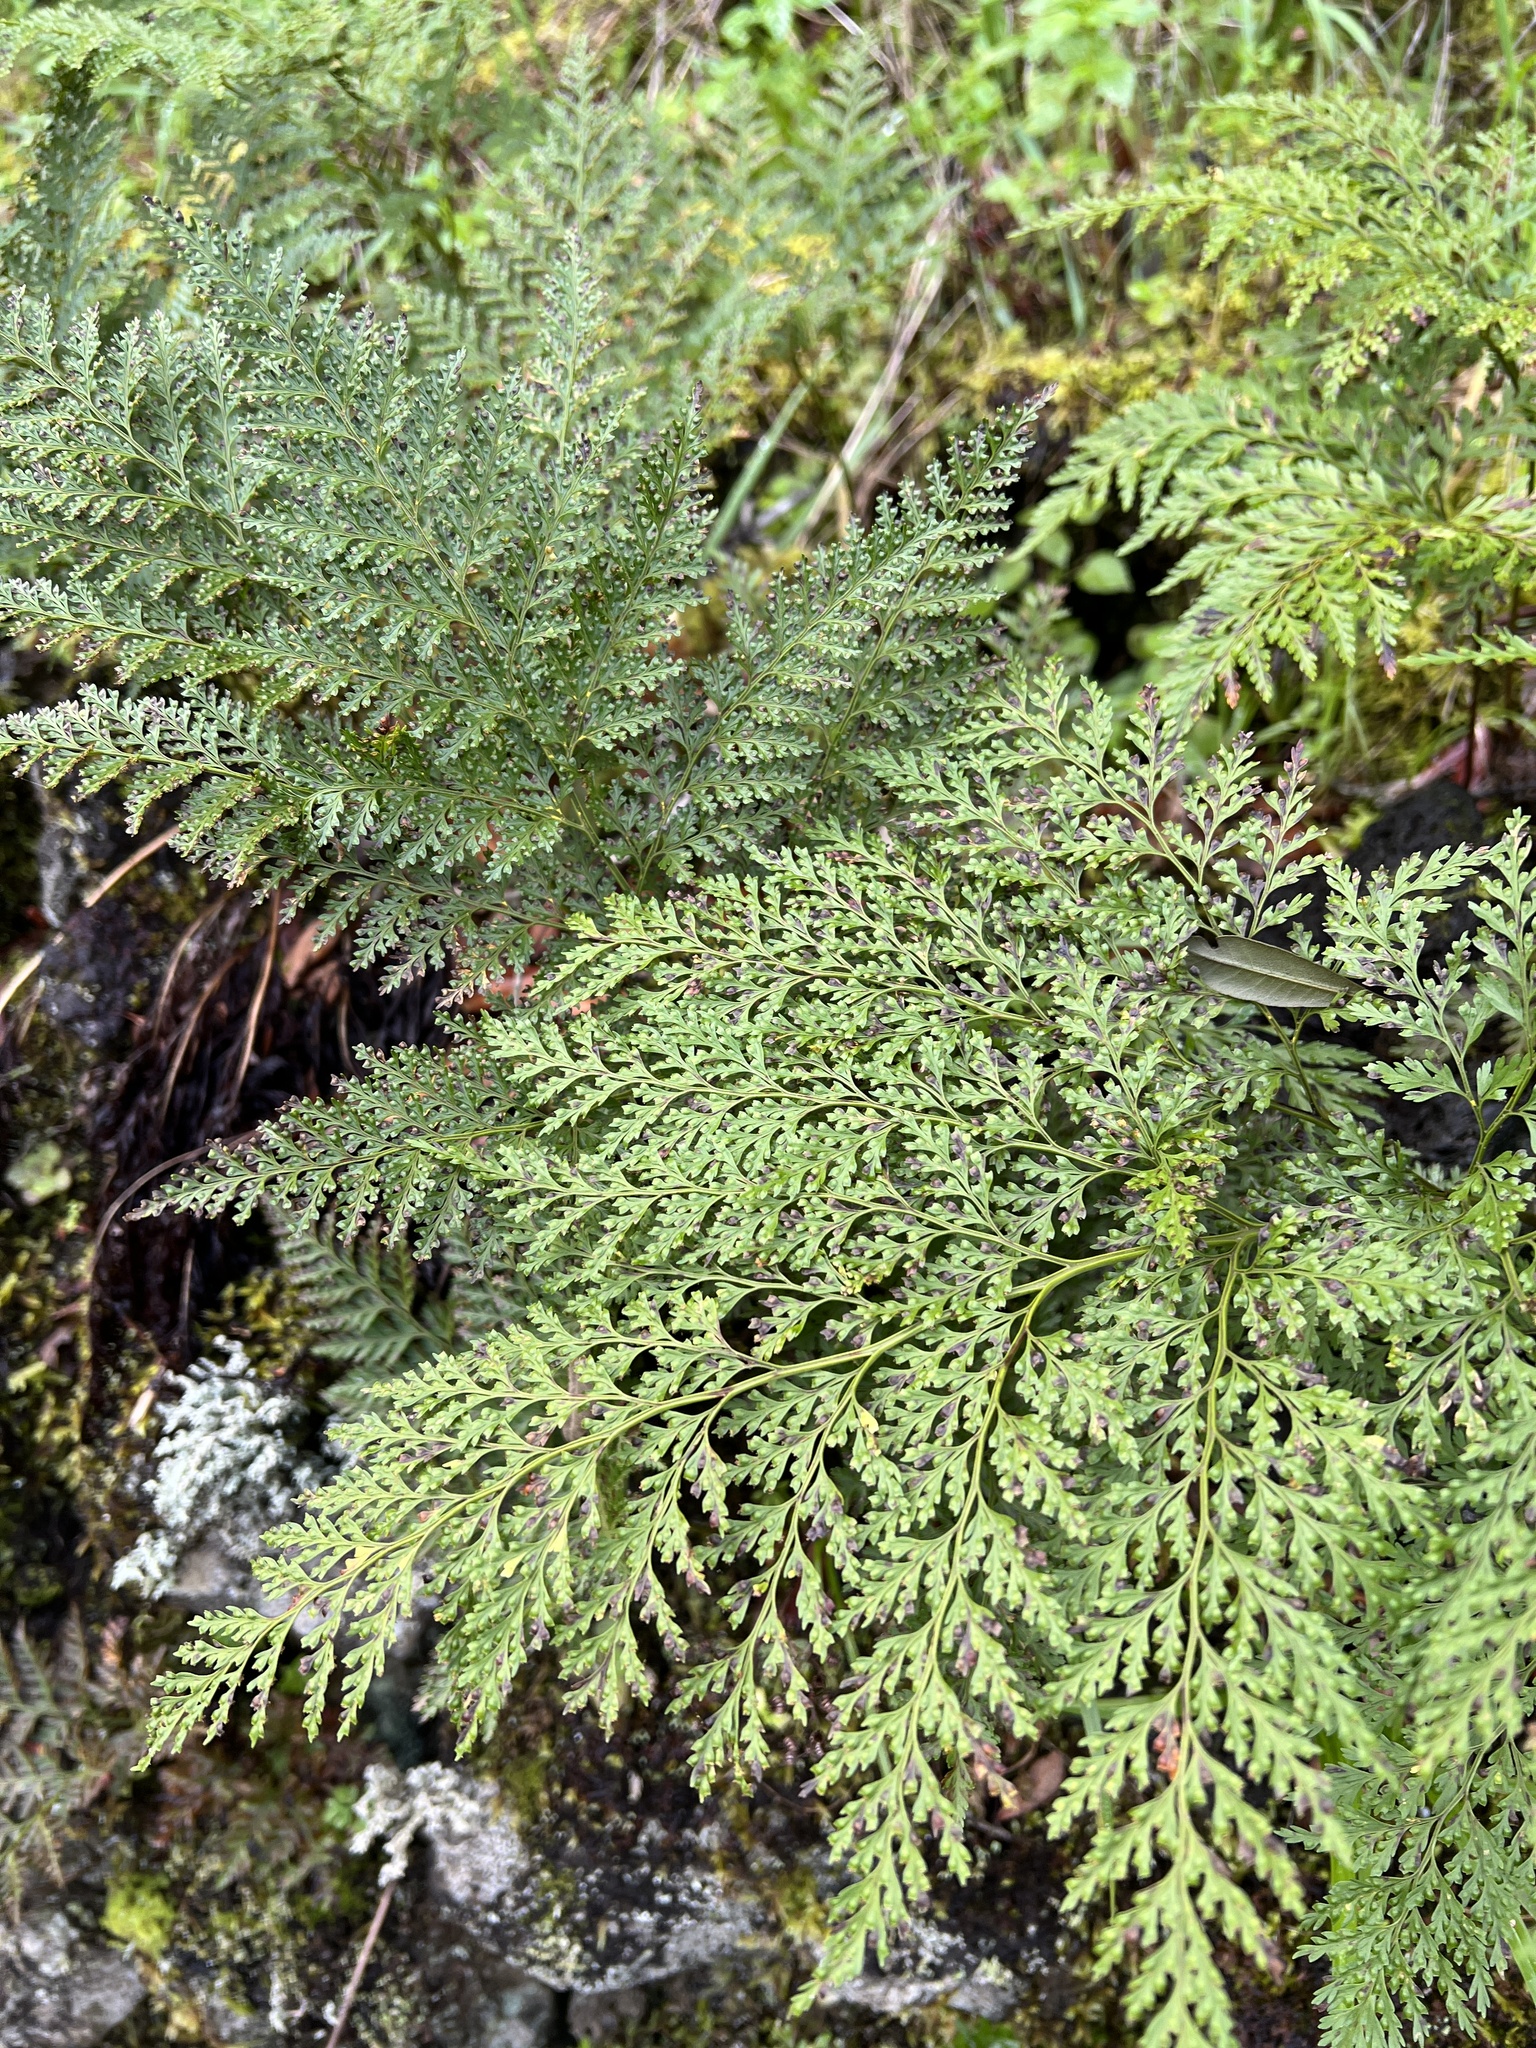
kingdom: Plantae
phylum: Tracheophyta
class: Polypodiopsida
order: Polypodiales
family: Davalliaceae
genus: Davallia
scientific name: Davallia canariensis
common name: Hare's-foot fern
